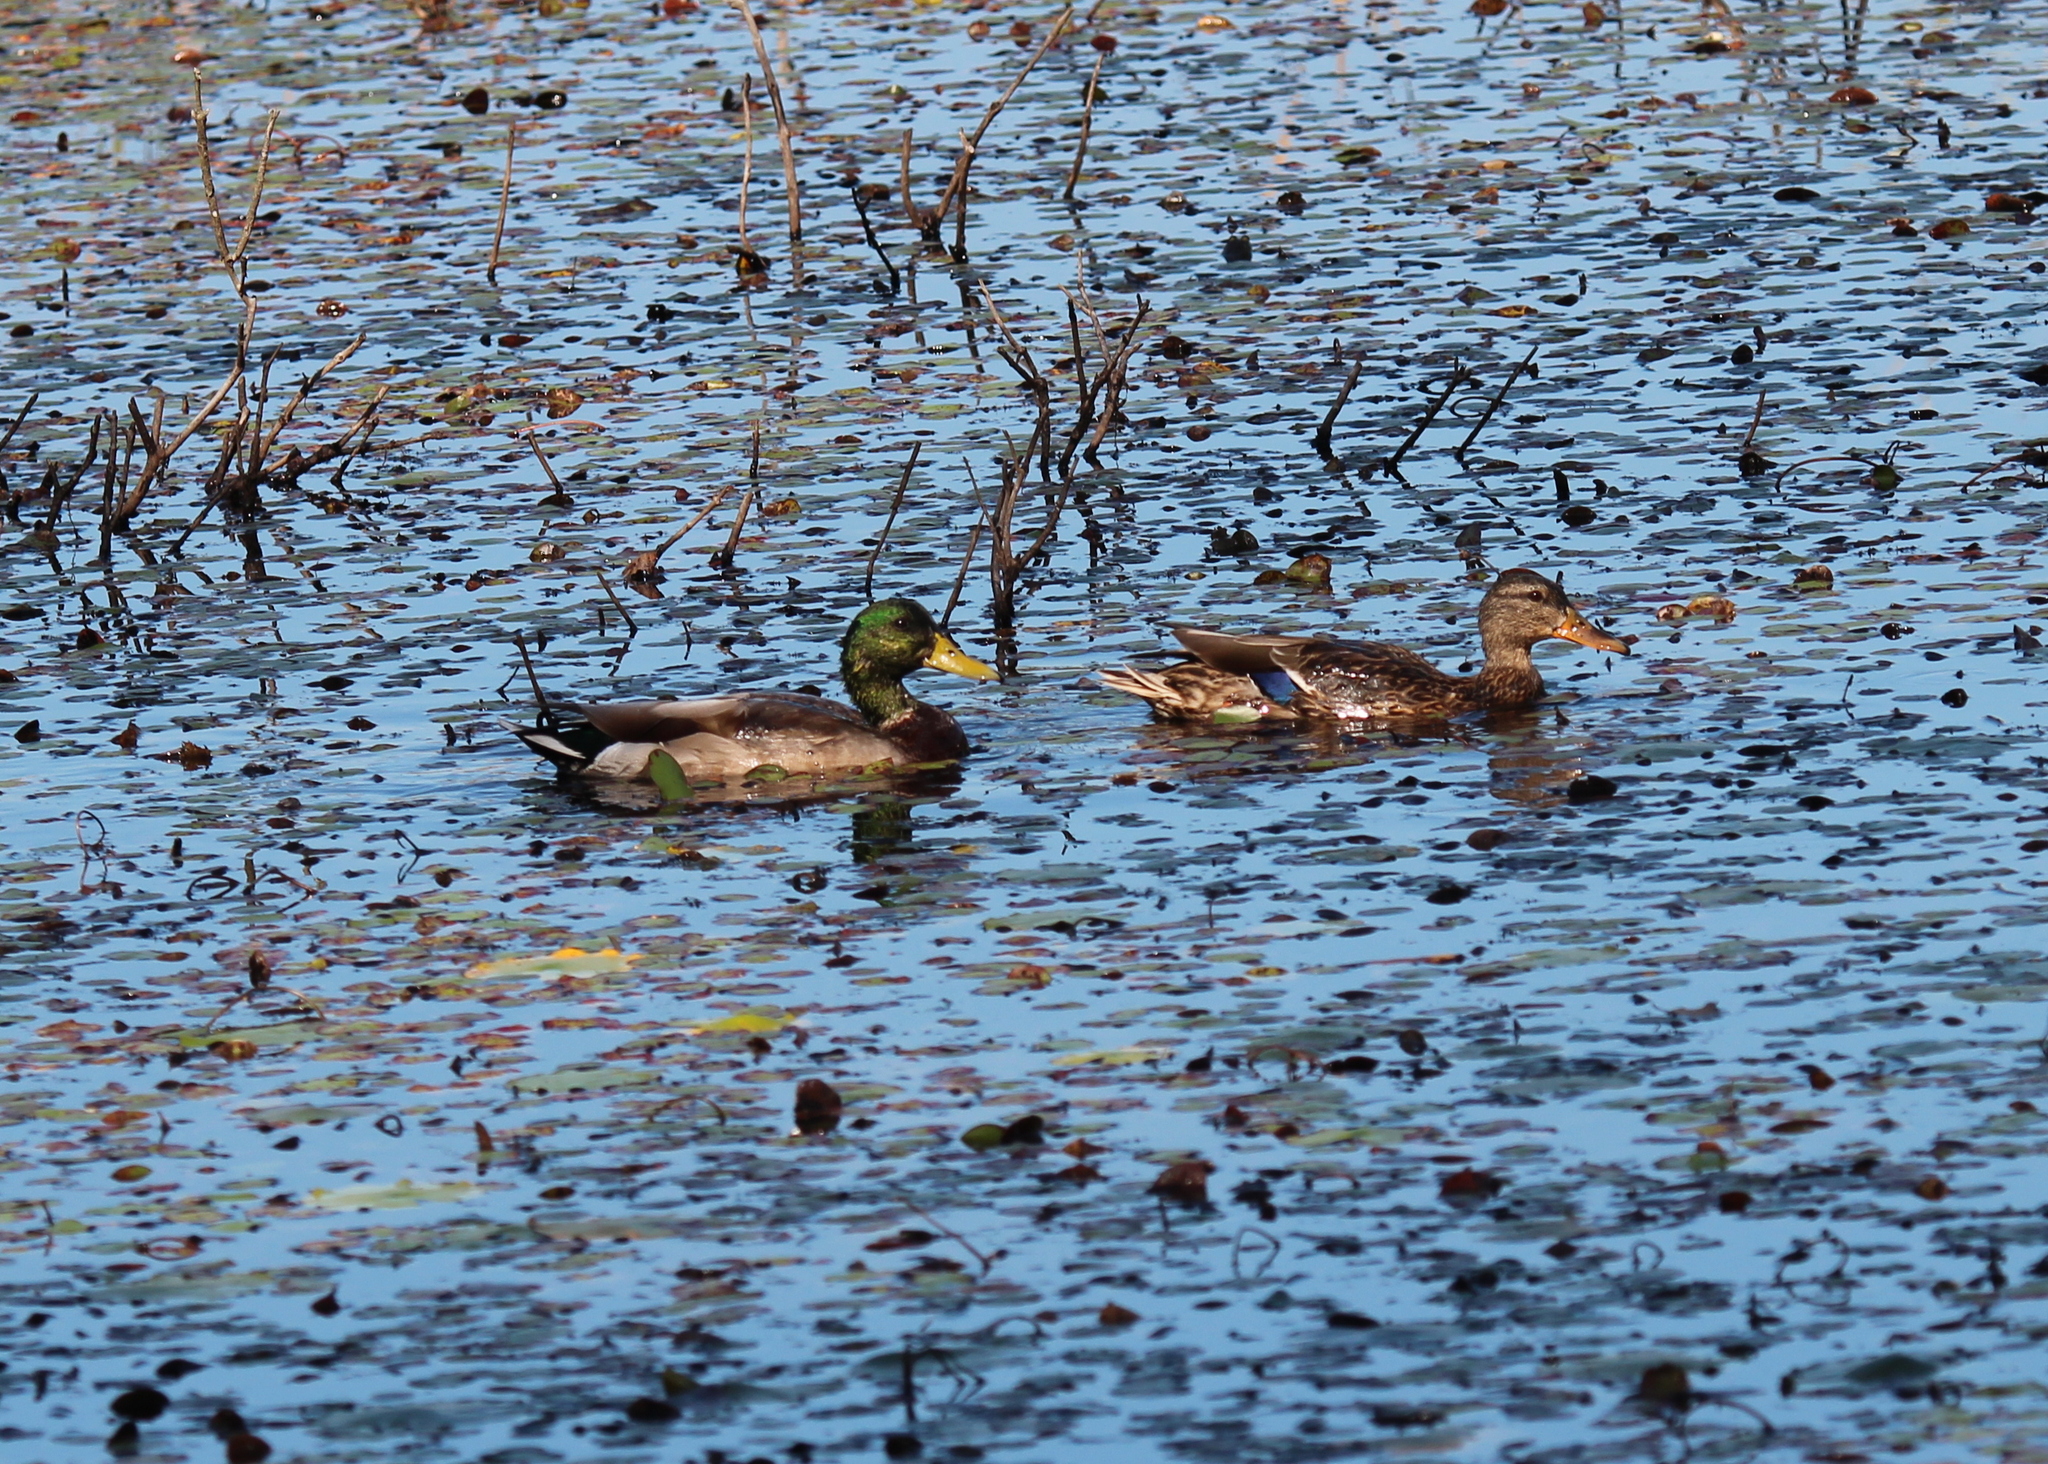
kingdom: Animalia
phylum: Chordata
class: Aves
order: Anseriformes
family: Anatidae
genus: Anas
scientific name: Anas platyrhynchos
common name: Mallard
